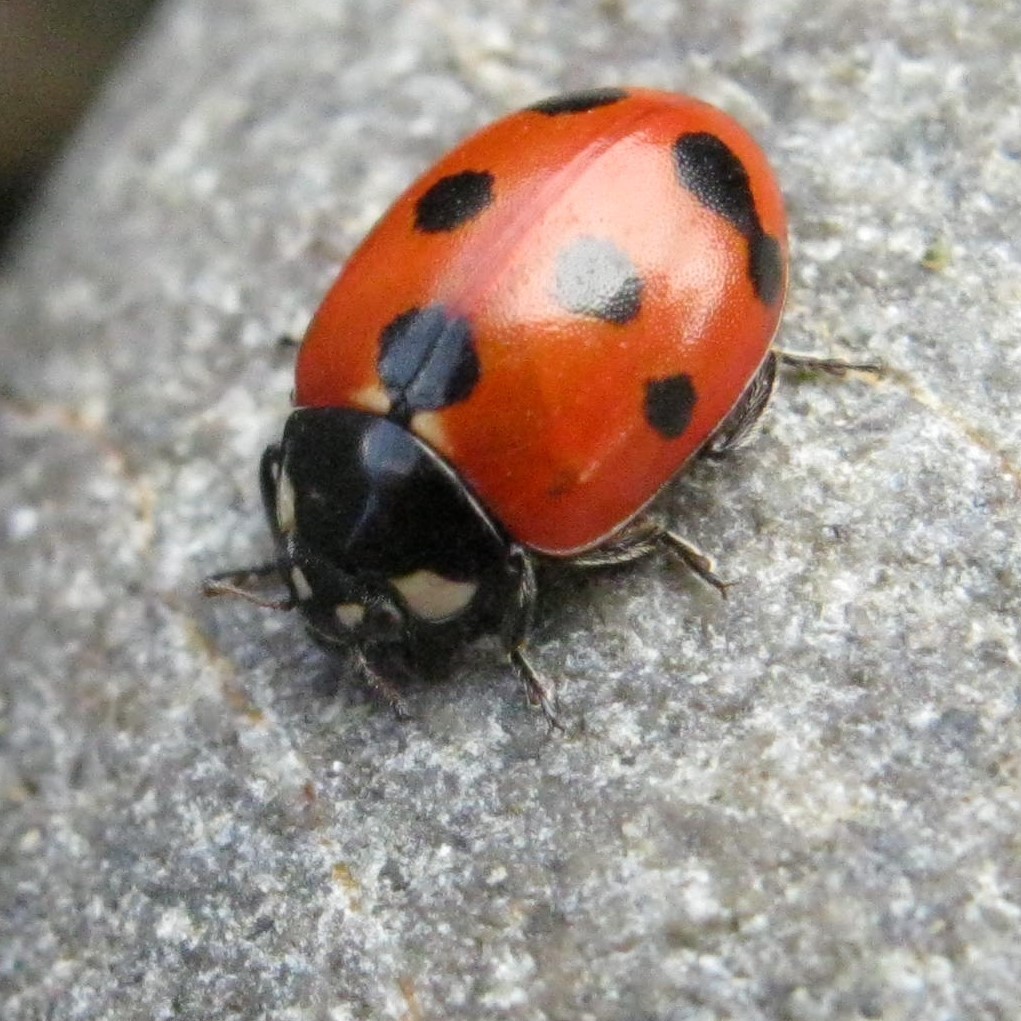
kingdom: Animalia
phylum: Arthropoda
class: Insecta
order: Coleoptera
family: Coccinellidae
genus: Coccinella
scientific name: Coccinella undecimpunctata
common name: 11-spot ladybird
